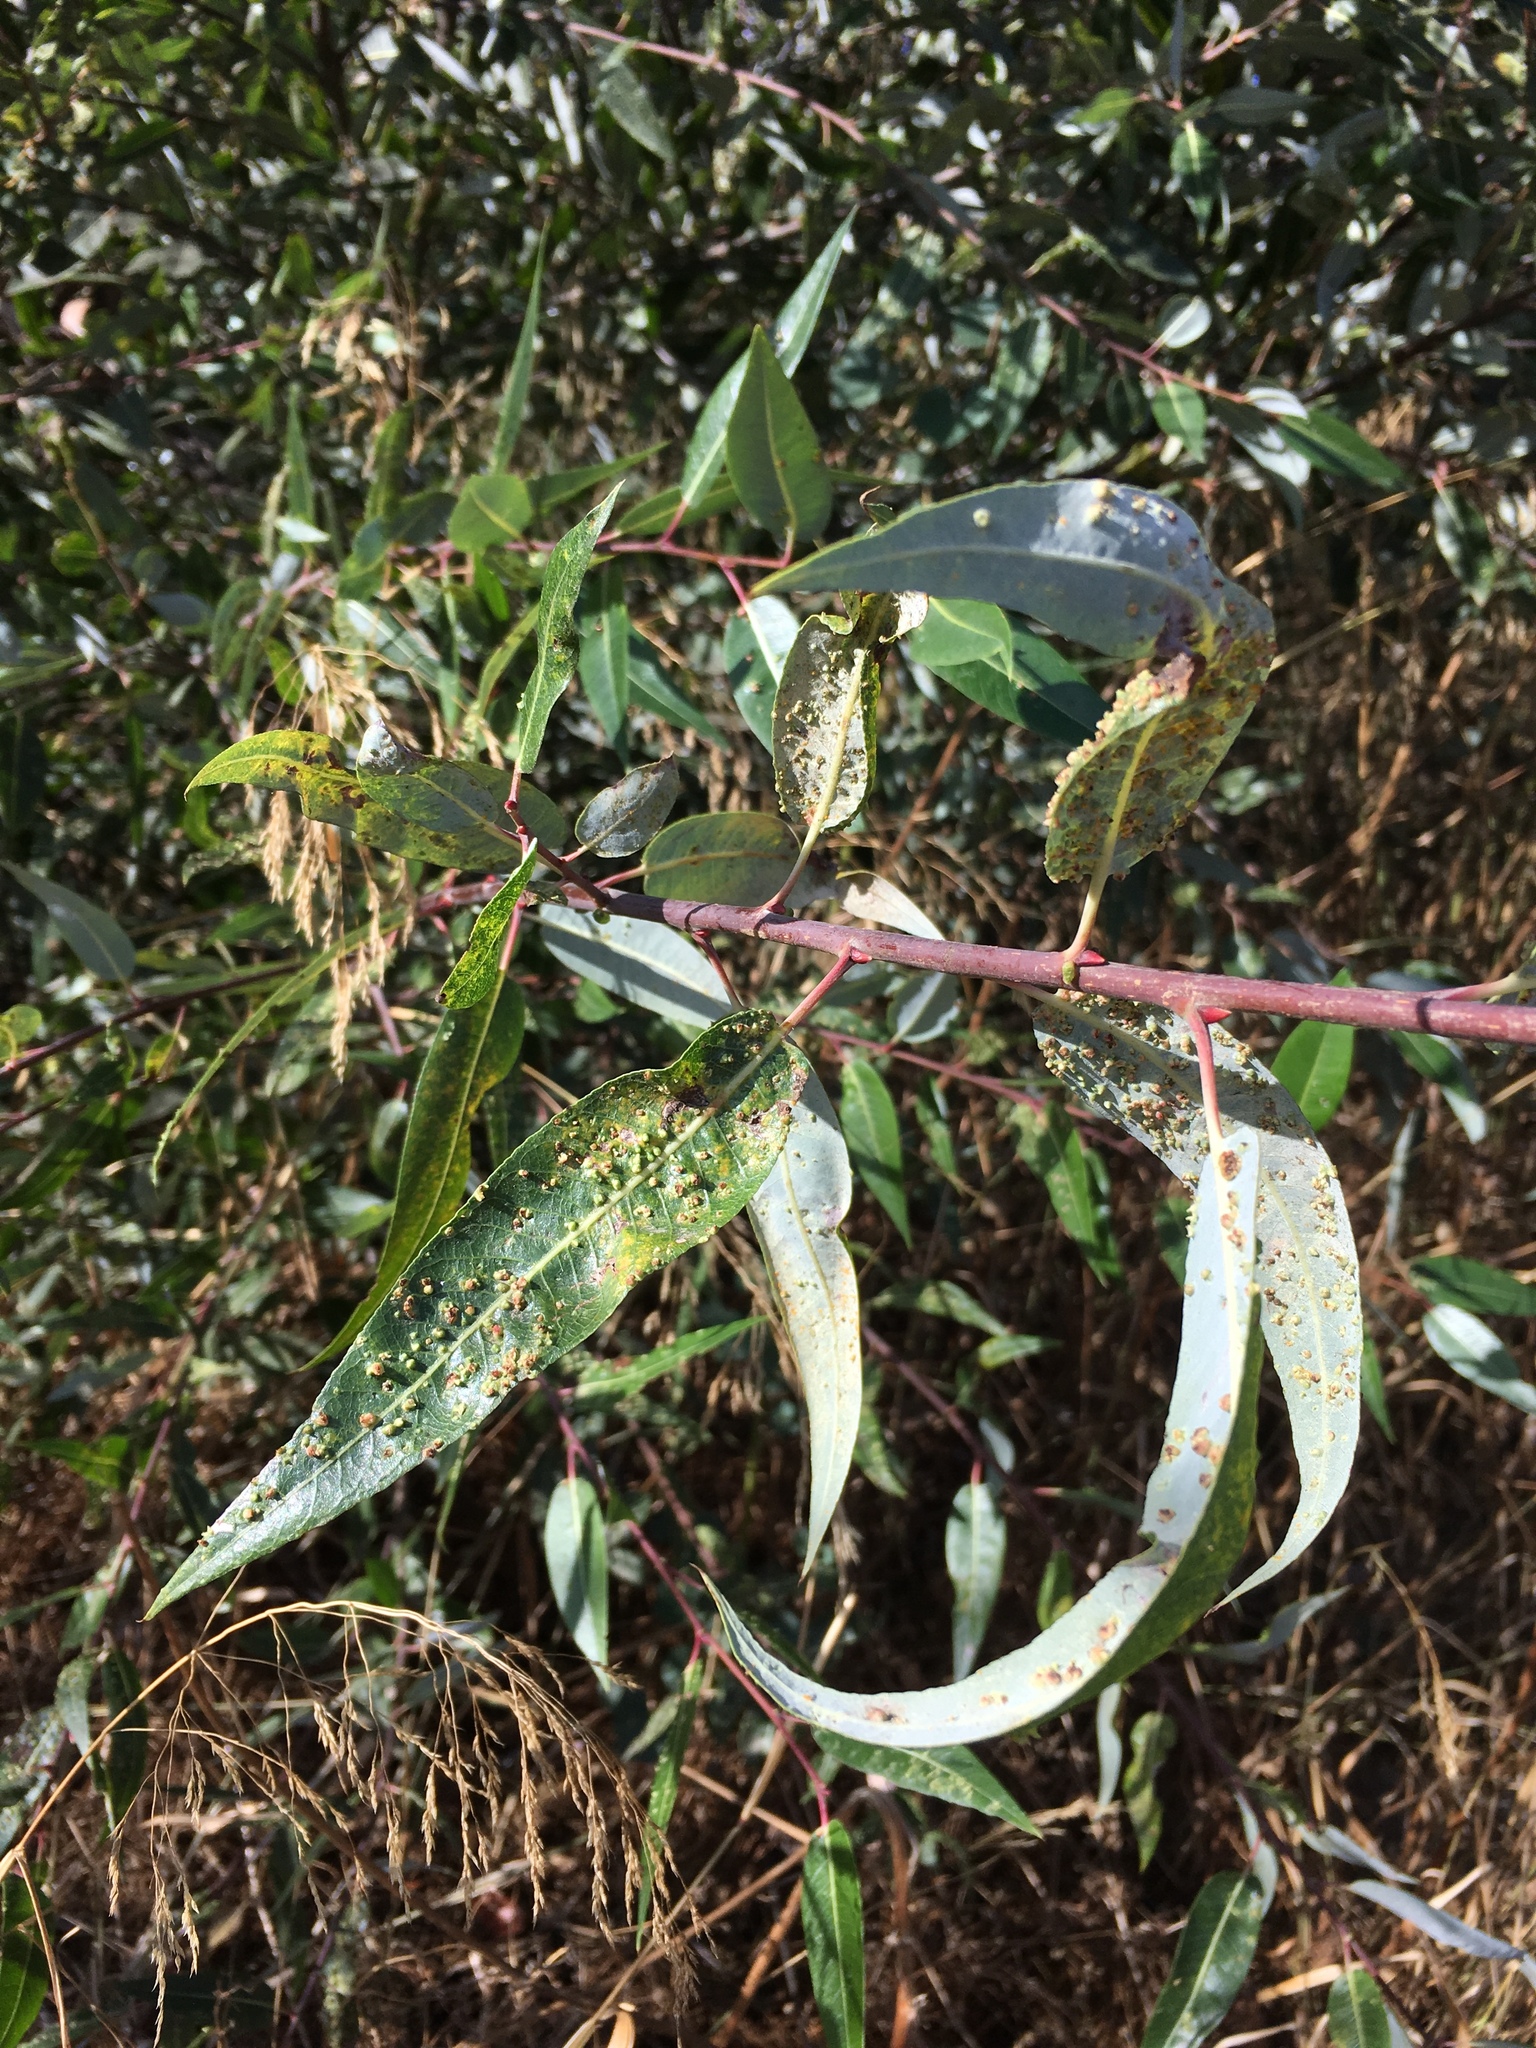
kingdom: Animalia
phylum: Arthropoda
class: Arachnida
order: Trombidiformes
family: Eriophyidae
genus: Aculus
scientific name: Aculus tetanothrix
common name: Willow bead gall mite
